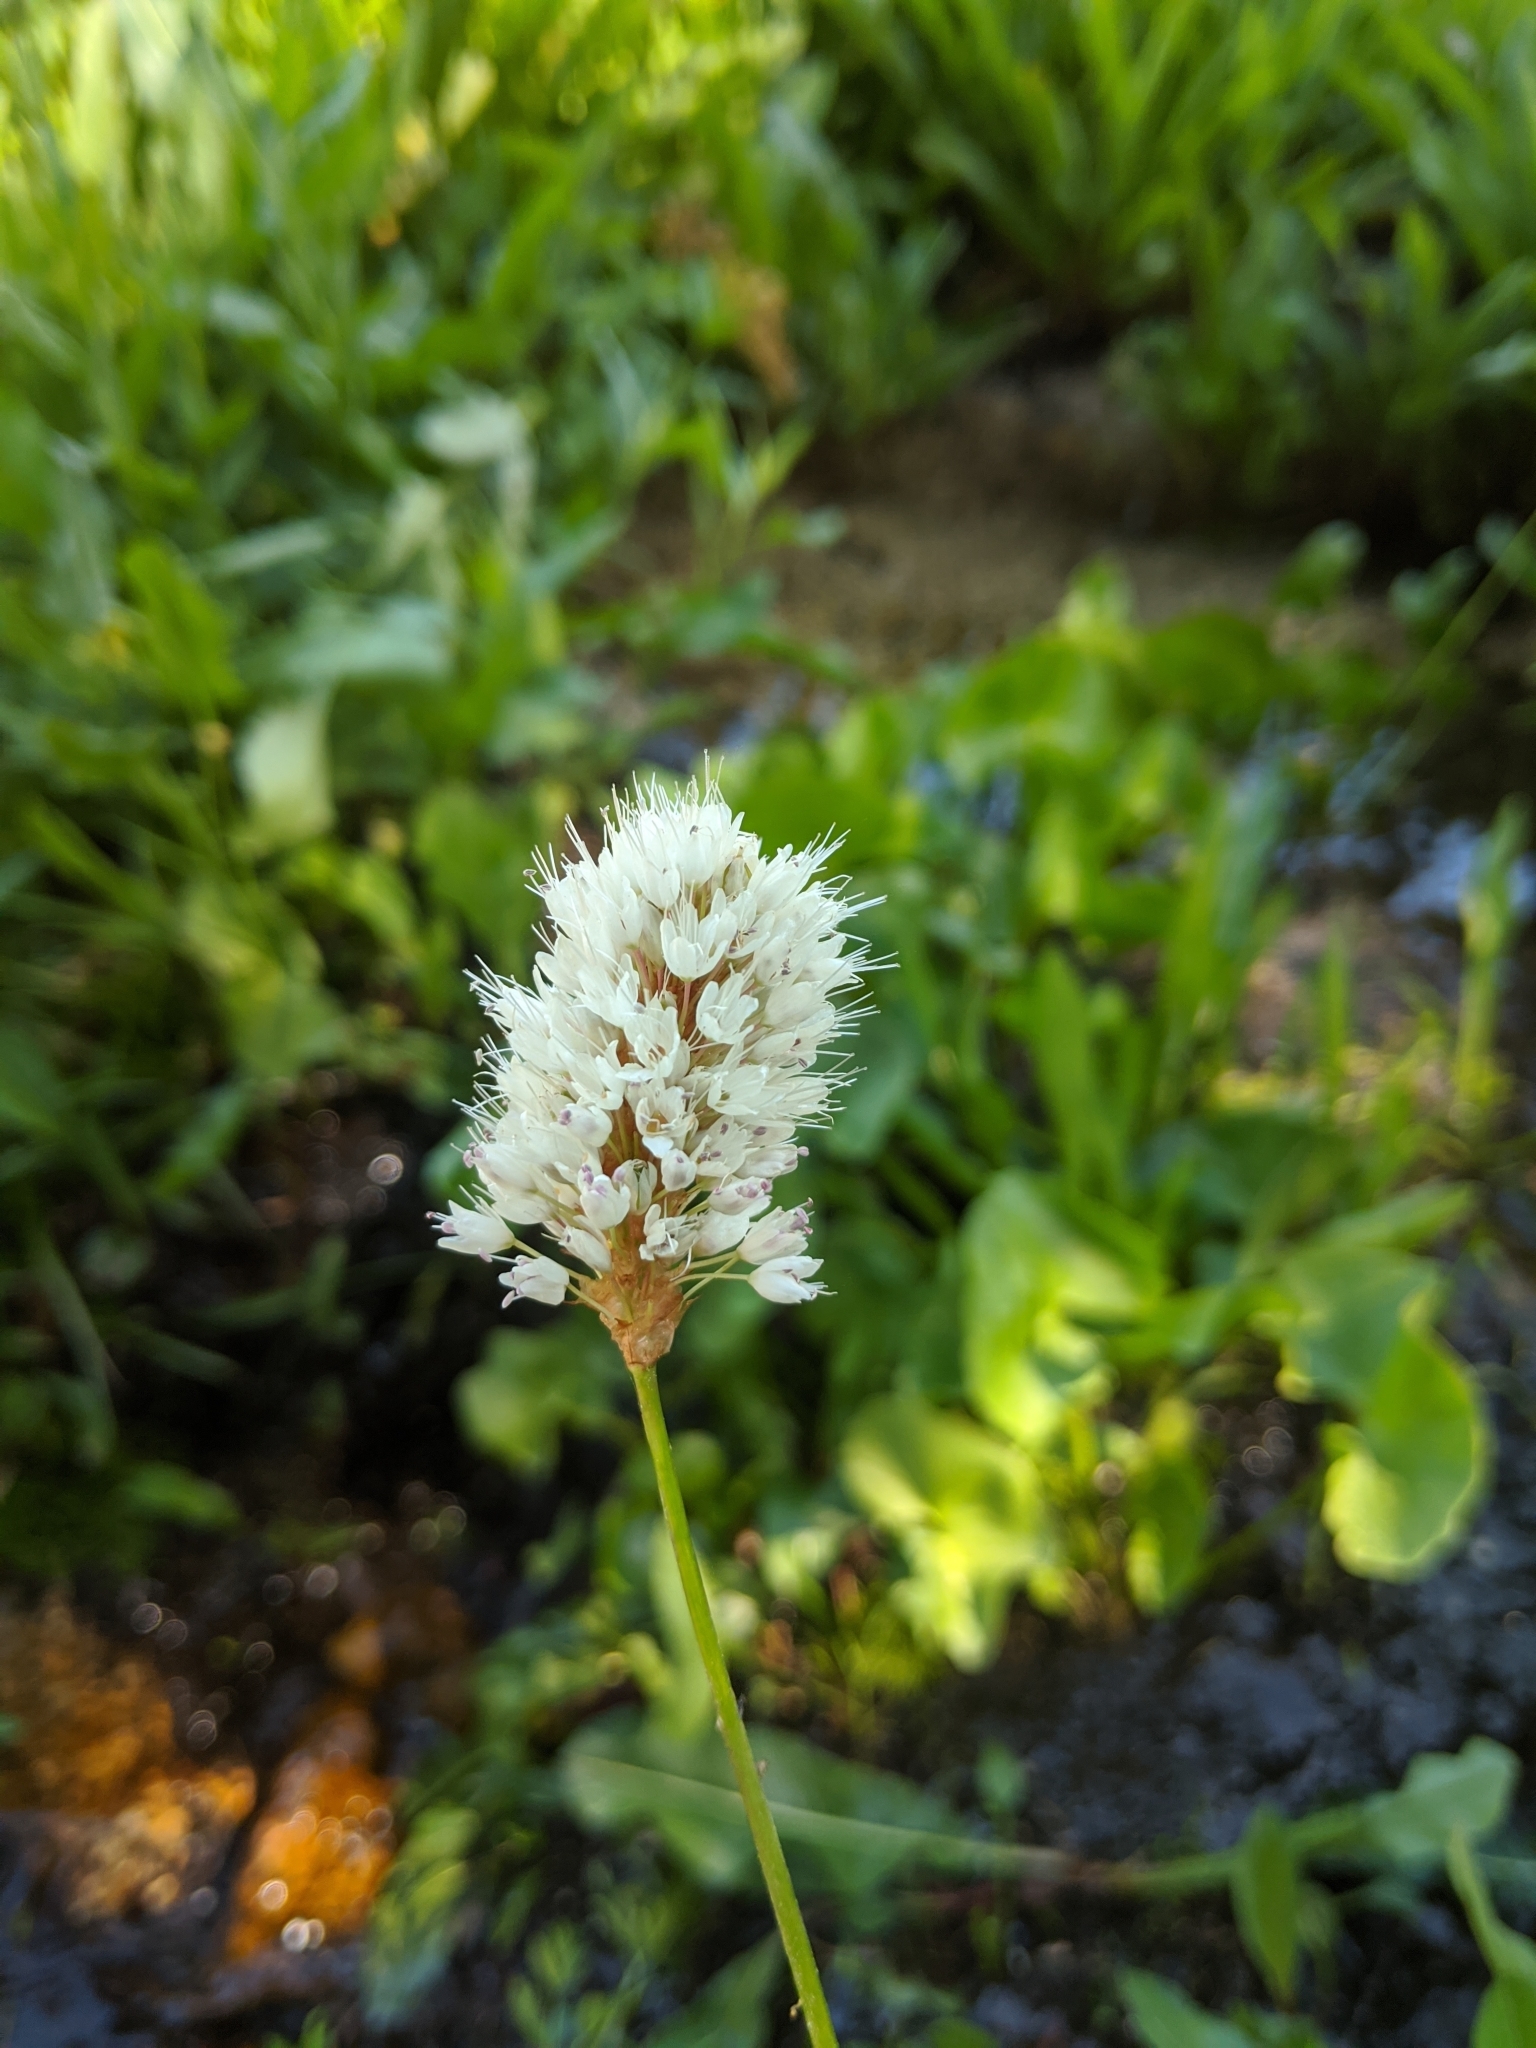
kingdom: Plantae
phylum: Tracheophyta
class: Magnoliopsida
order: Caryophyllales
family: Polygonaceae
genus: Bistorta
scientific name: Bistorta bistortoides
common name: American bistort
